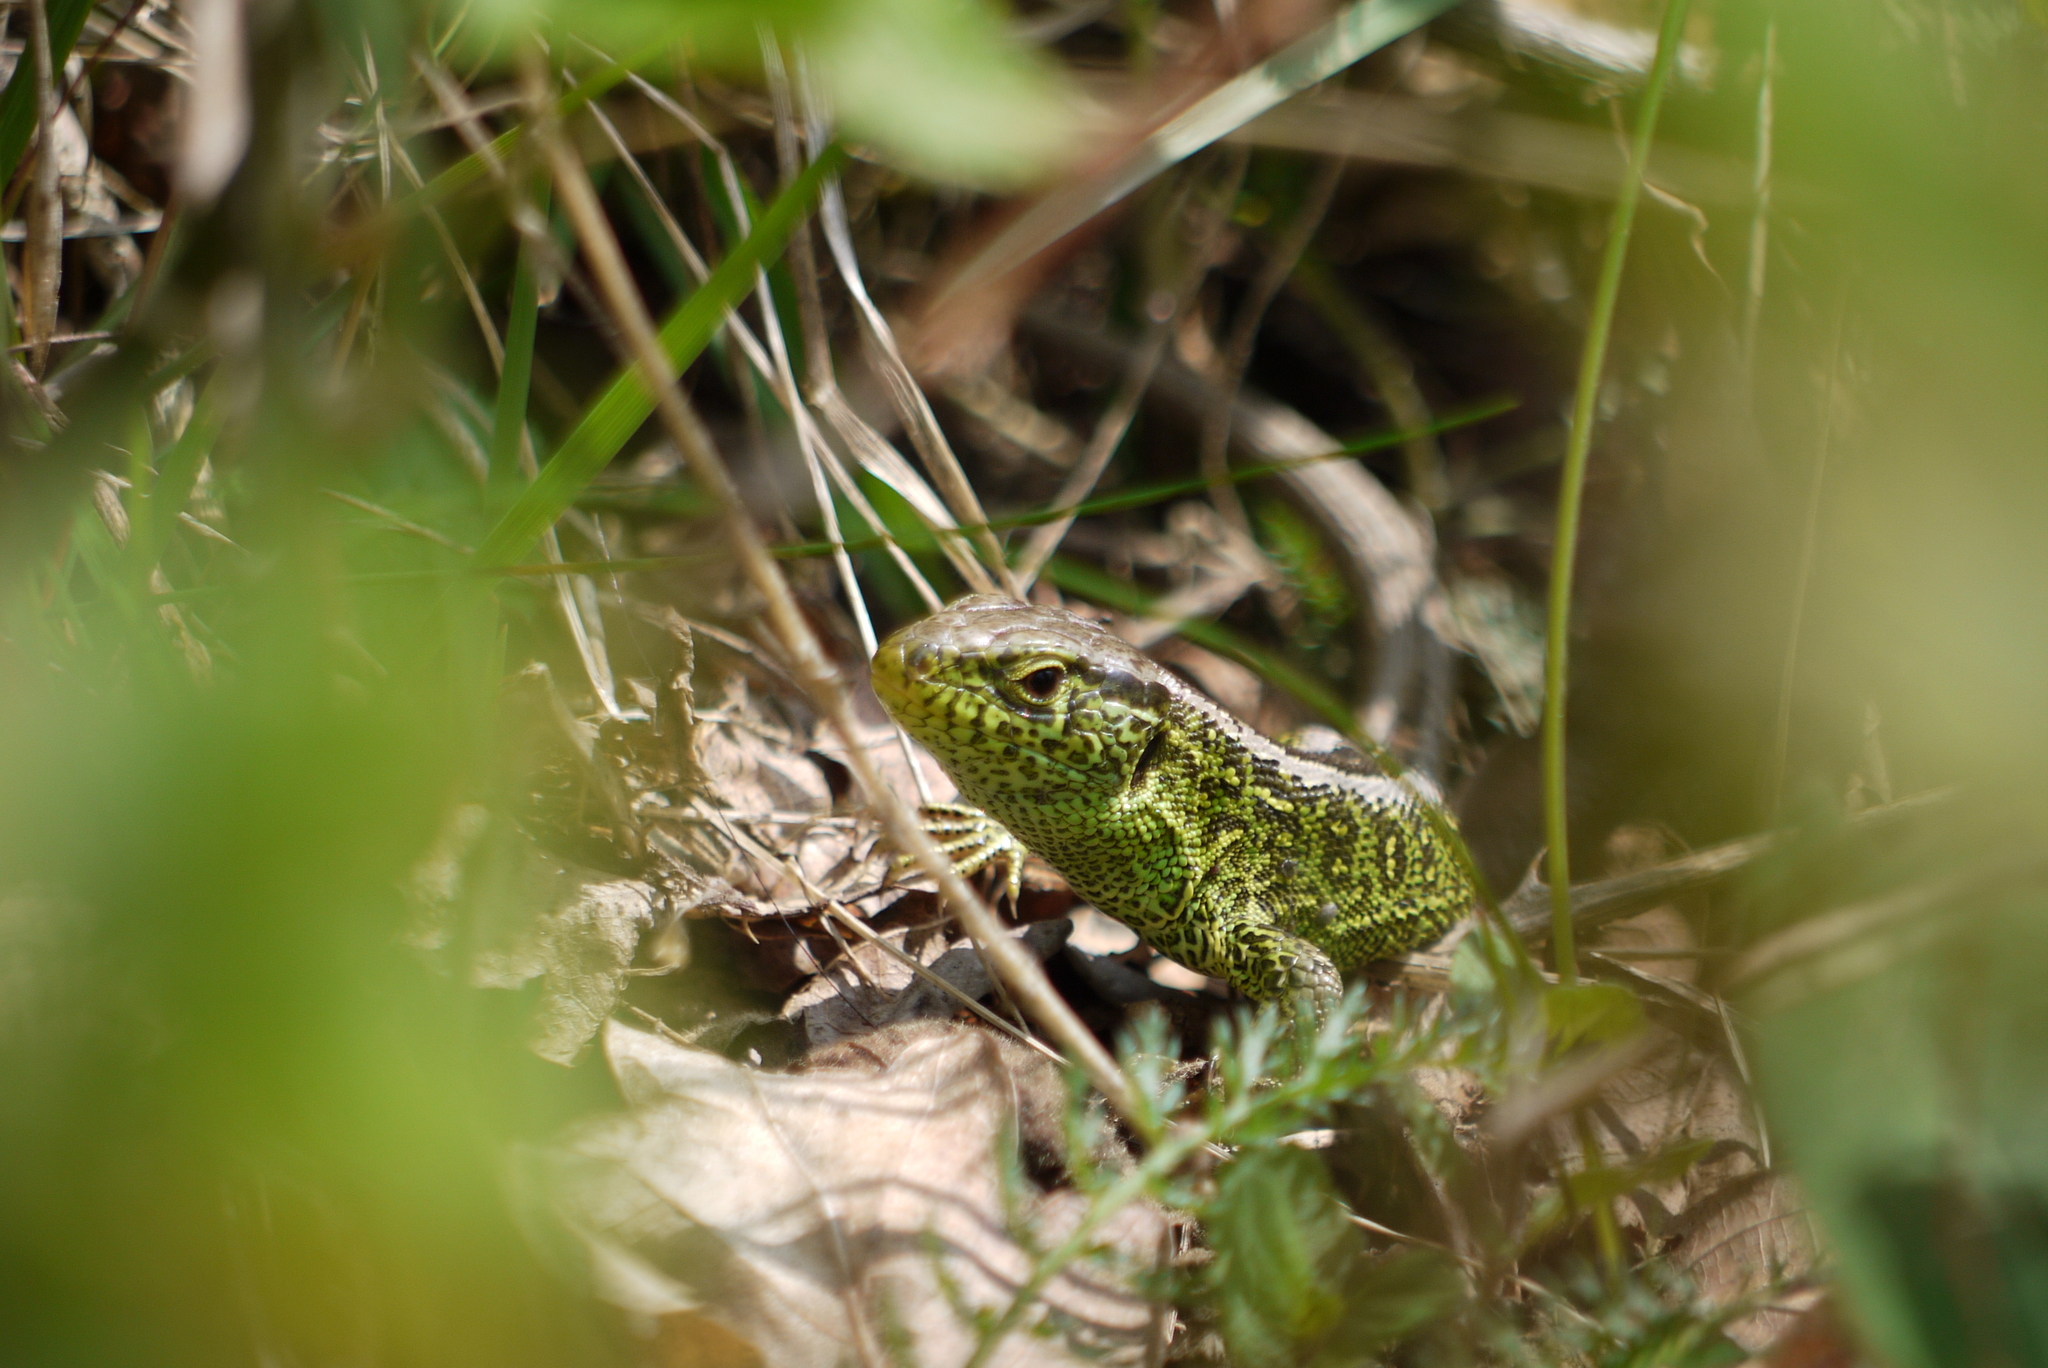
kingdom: Animalia
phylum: Chordata
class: Squamata
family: Lacertidae
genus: Lacerta
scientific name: Lacerta agilis
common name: Sand lizard
